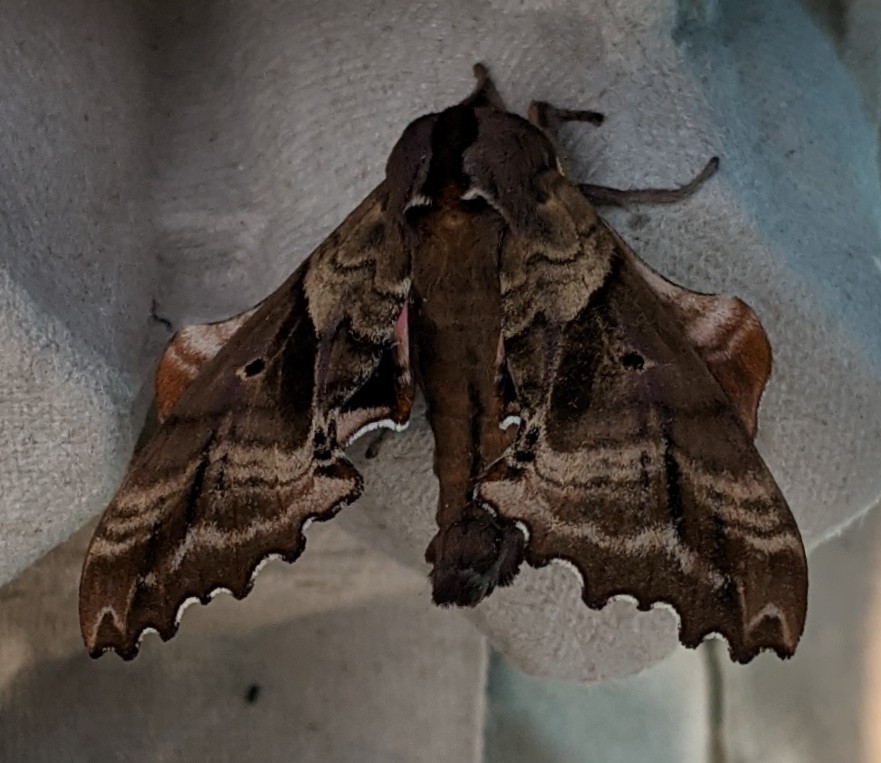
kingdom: Animalia
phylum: Arthropoda
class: Insecta
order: Lepidoptera
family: Sphingidae
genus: Paonias
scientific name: Paonias excaecata
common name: Blind-eyed sphinx
